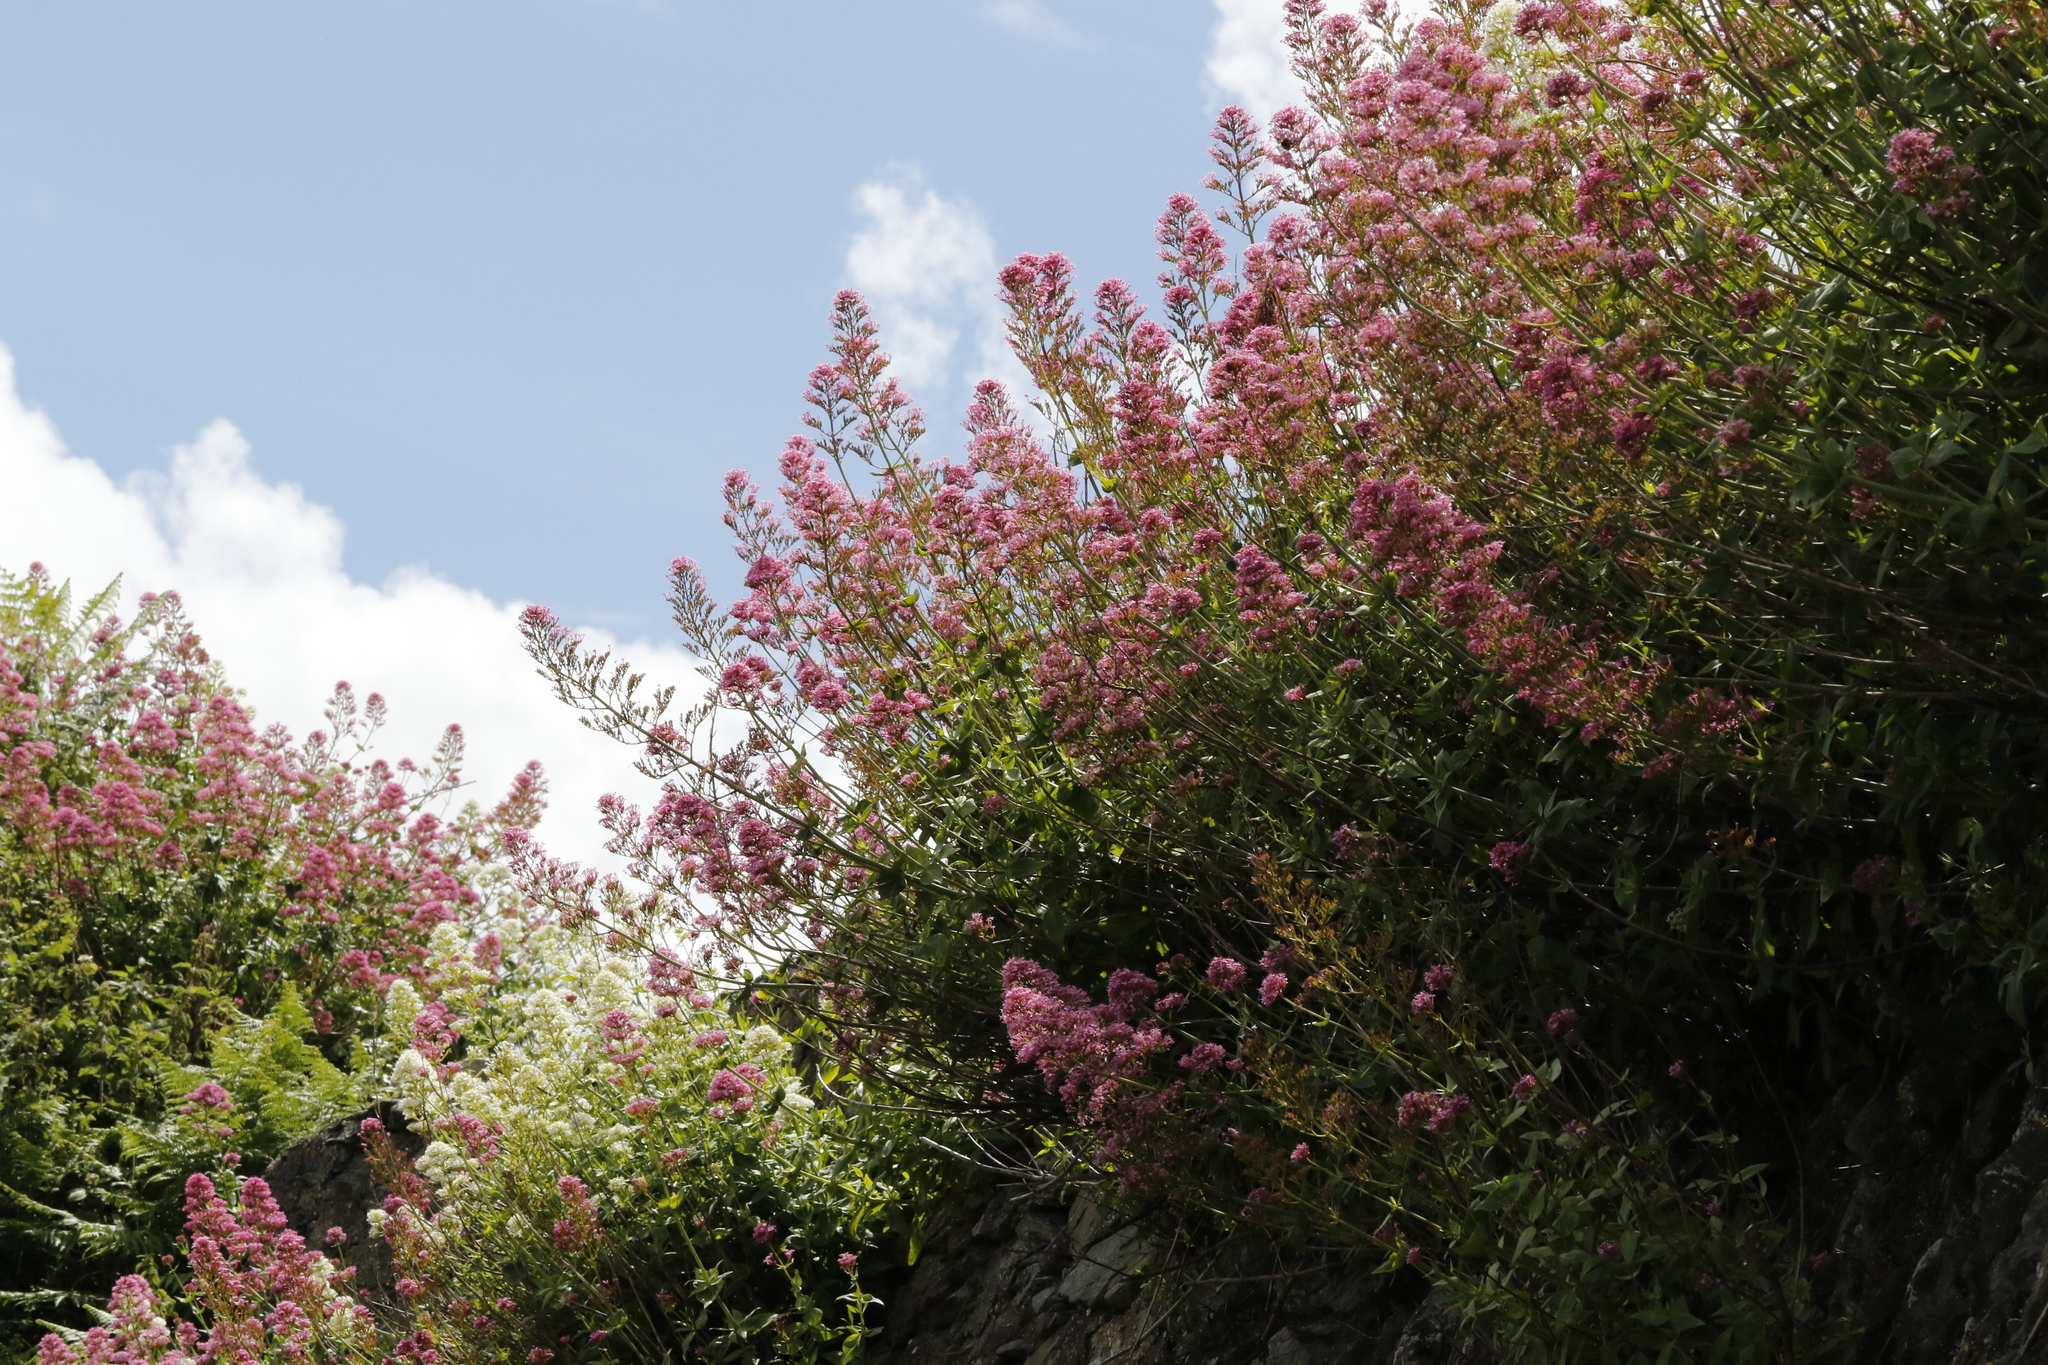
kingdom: Plantae
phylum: Tracheophyta
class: Magnoliopsida
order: Dipsacales
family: Caprifoliaceae
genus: Centranthus
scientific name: Centranthus ruber
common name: Red valerian
